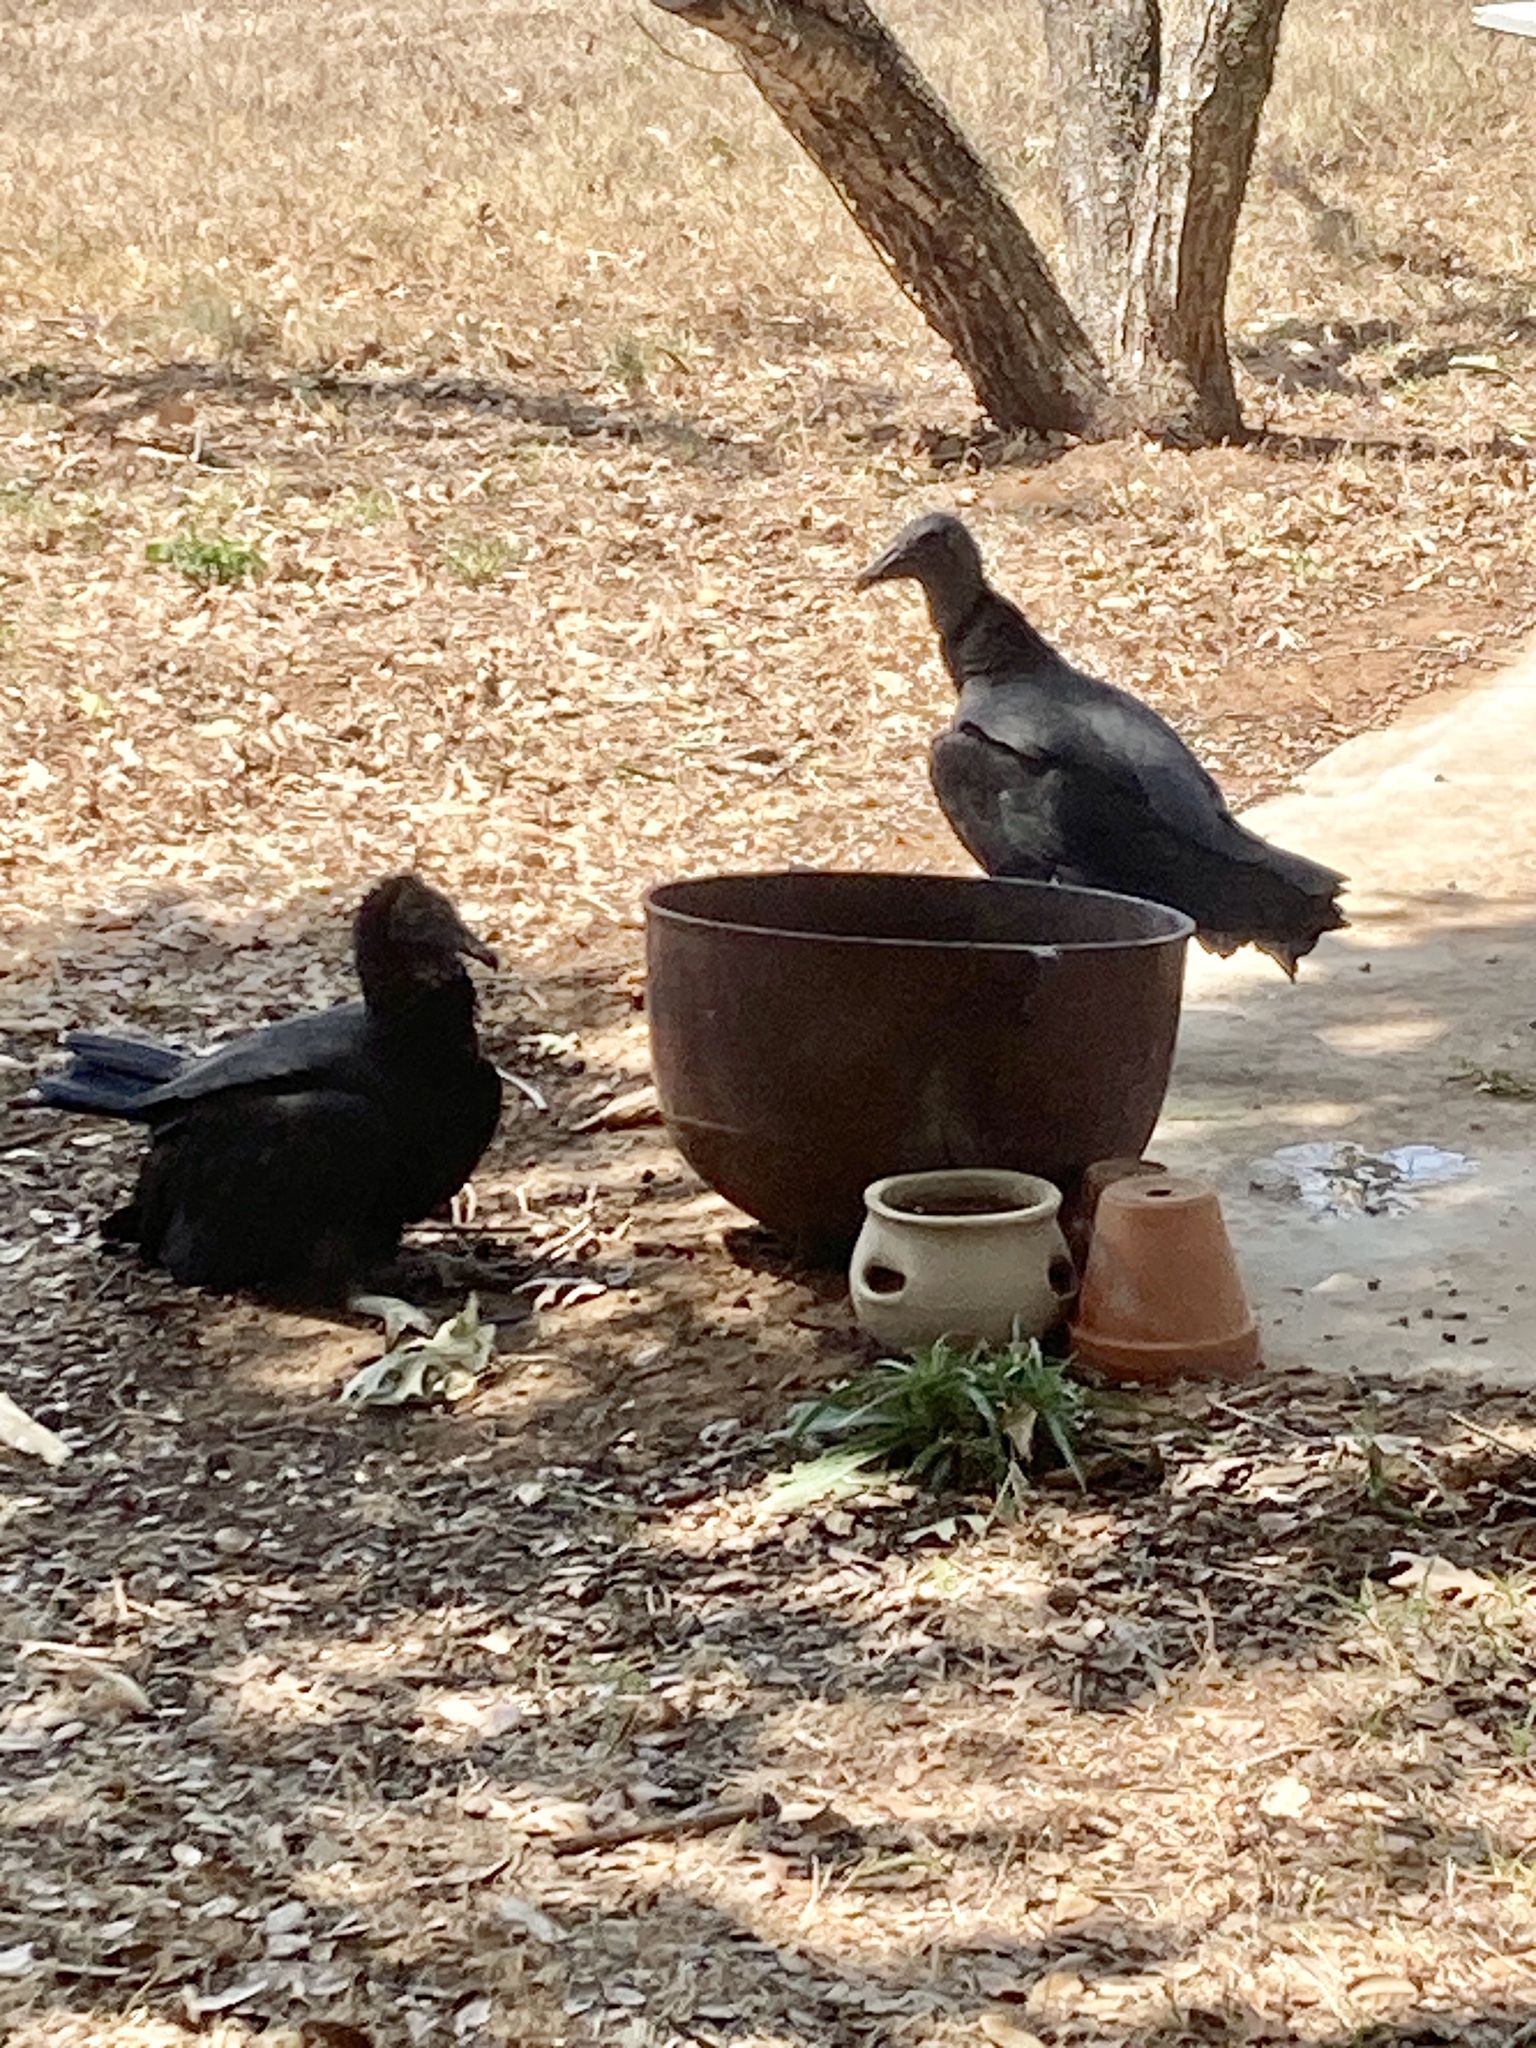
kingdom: Animalia
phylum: Chordata
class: Aves
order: Accipitriformes
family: Cathartidae
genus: Coragyps
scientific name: Coragyps atratus
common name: Black vulture
